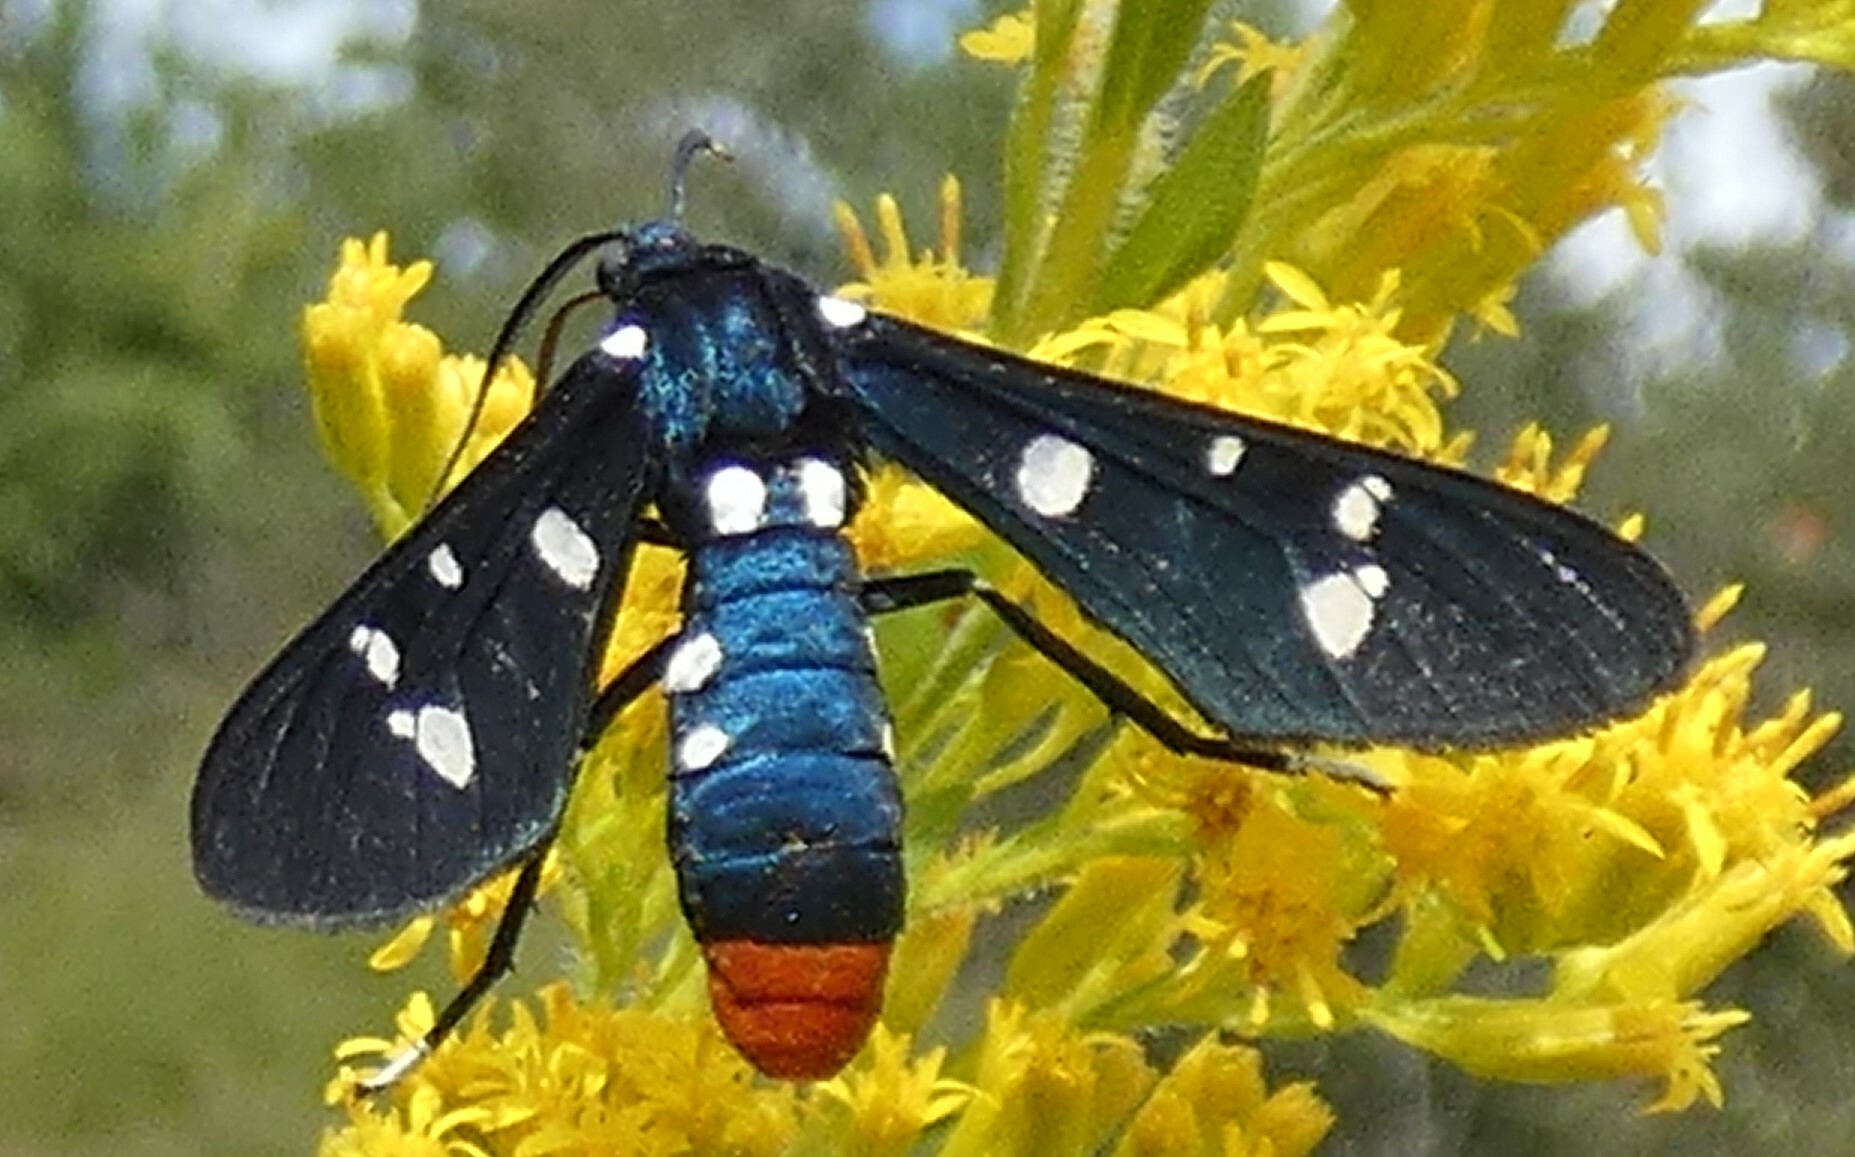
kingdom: Animalia
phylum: Arthropoda
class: Insecta
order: Lepidoptera
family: Erebidae
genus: Syntomeida
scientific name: Syntomeida epilais
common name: Polka-dot wasp moth
